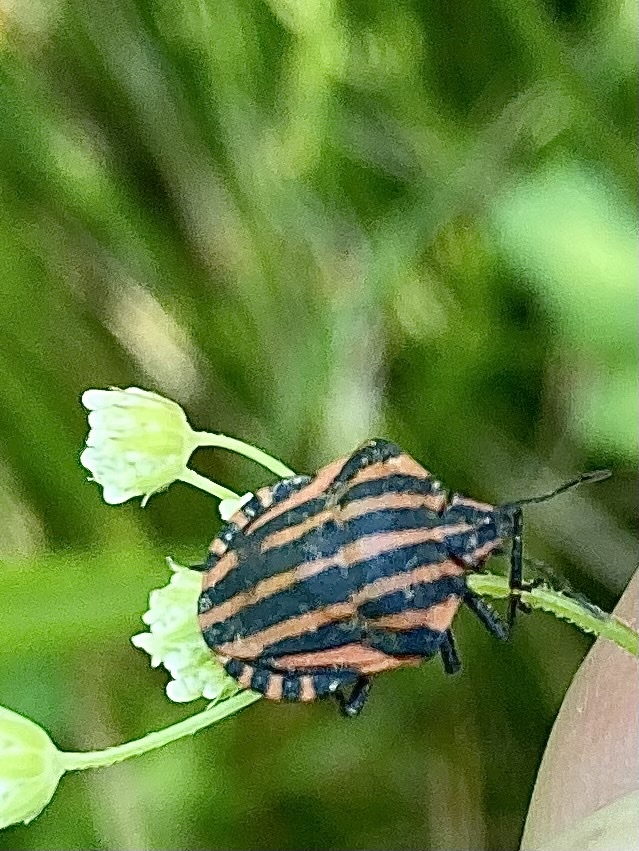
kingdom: Animalia
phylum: Arthropoda
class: Insecta
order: Hemiptera
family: Pentatomidae
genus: Graphosoma
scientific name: Graphosoma italicum
